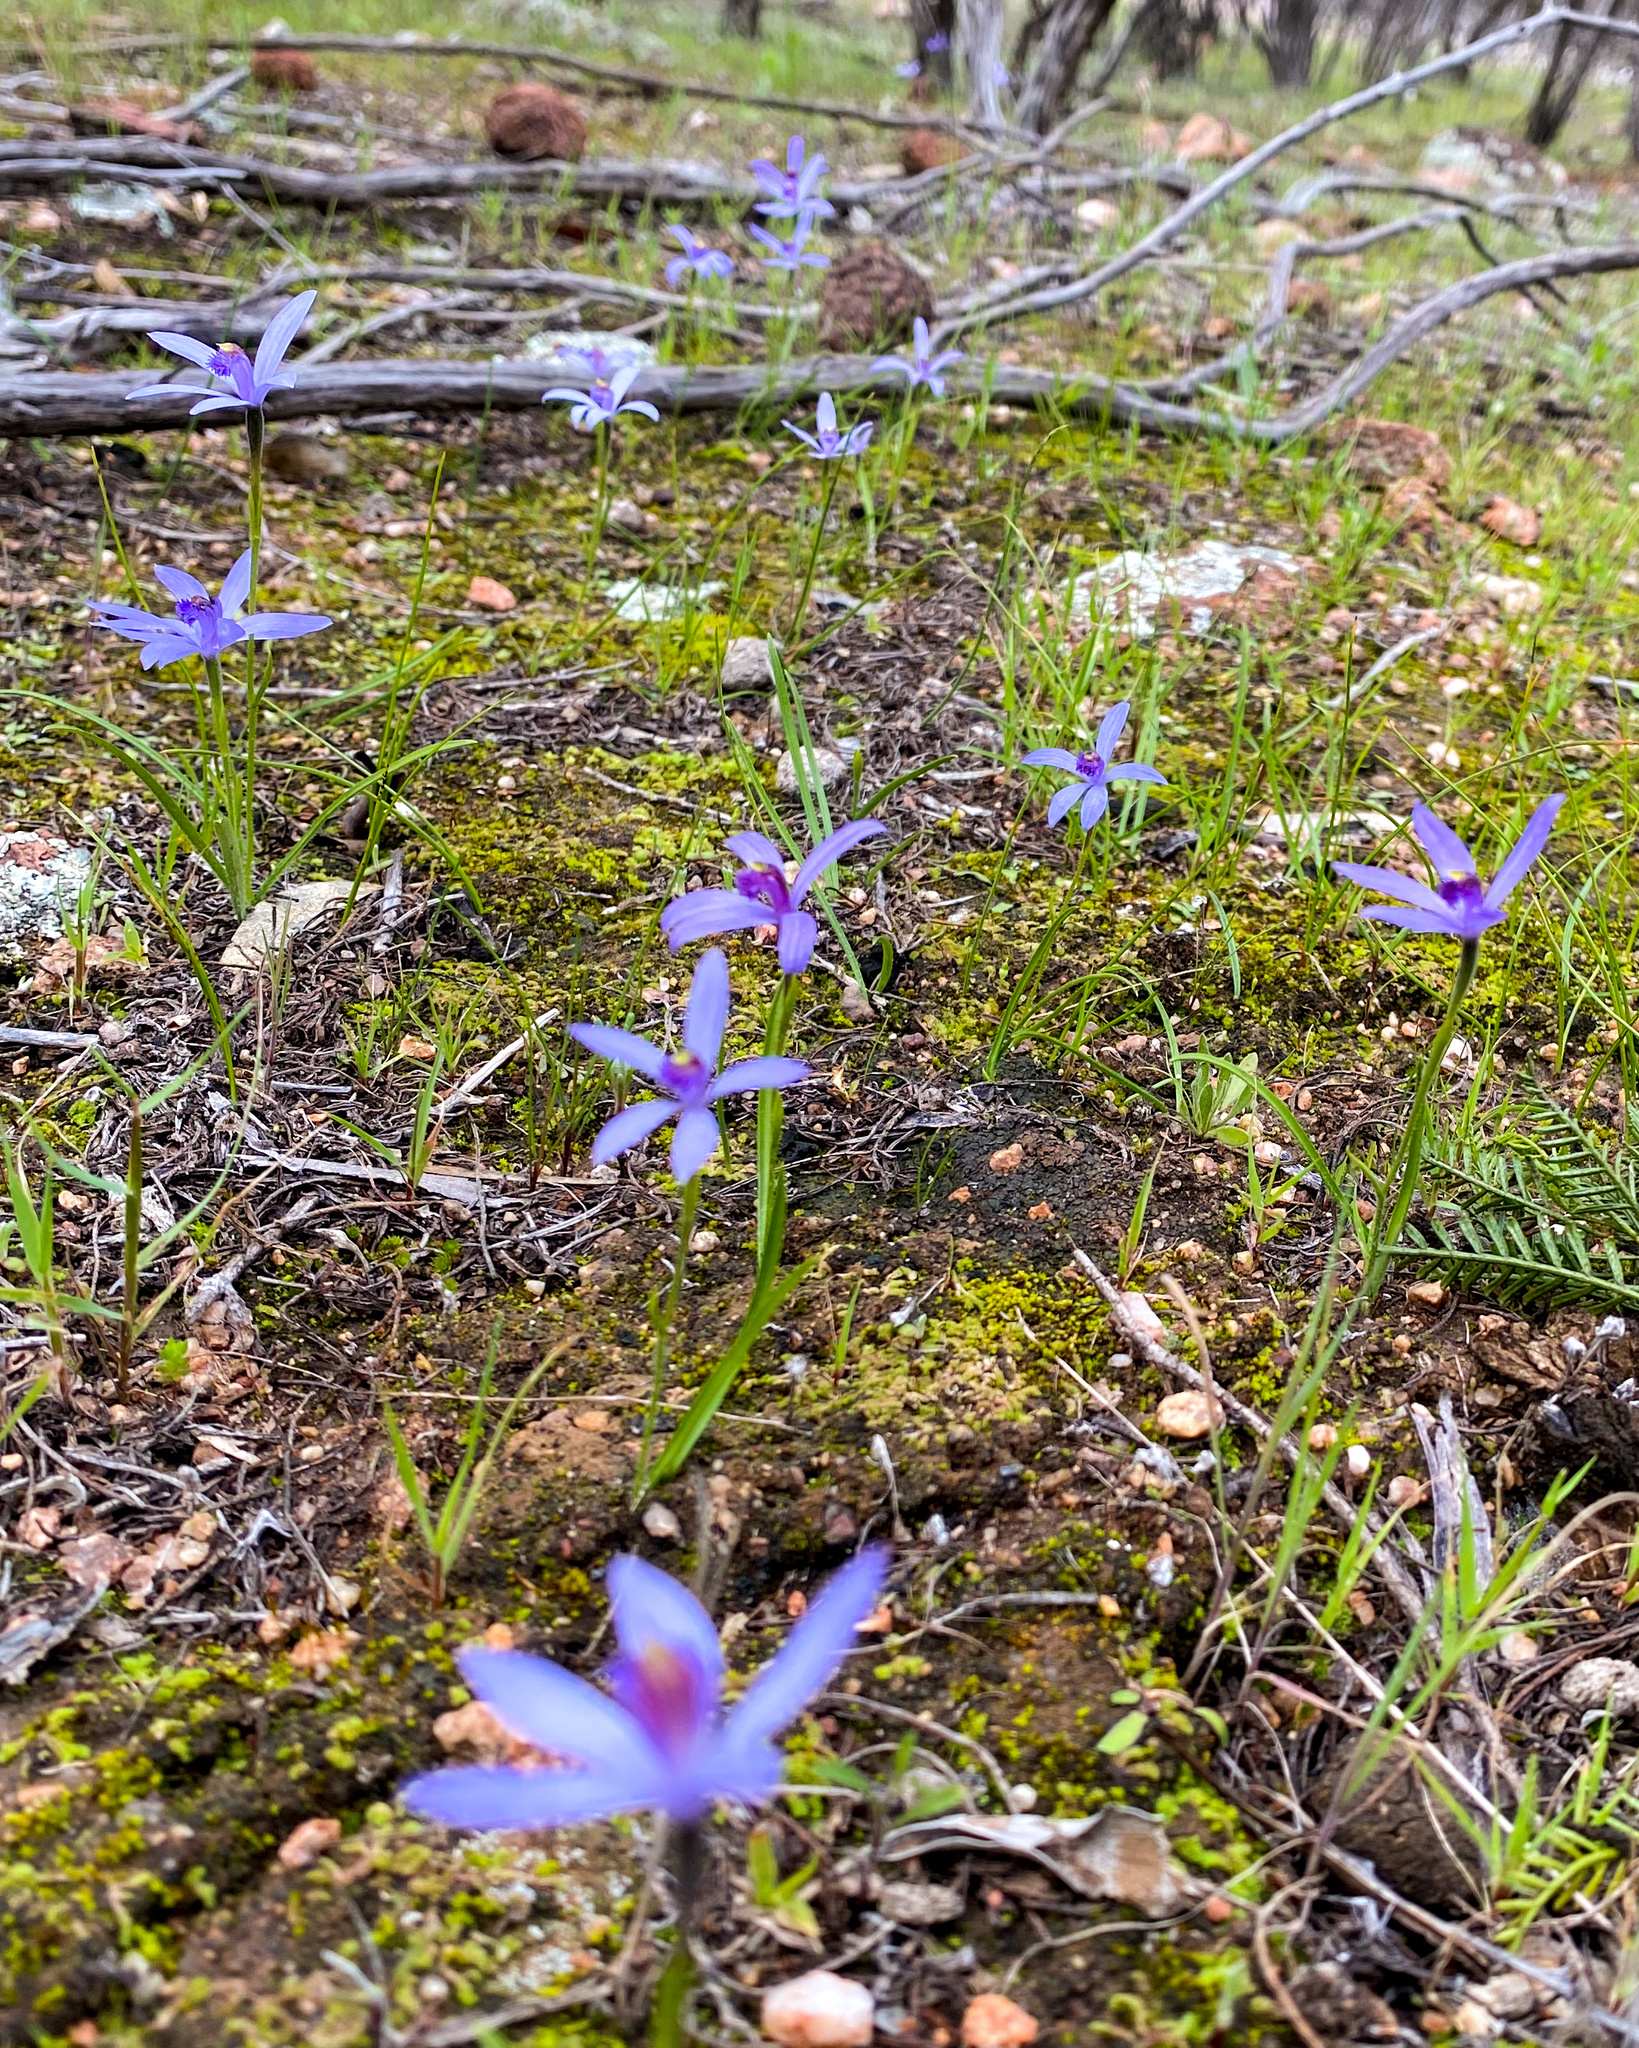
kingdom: Plantae
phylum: Tracheophyta
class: Liliopsida
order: Asparagales
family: Orchidaceae
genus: Pheladenia
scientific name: Pheladenia deformis
